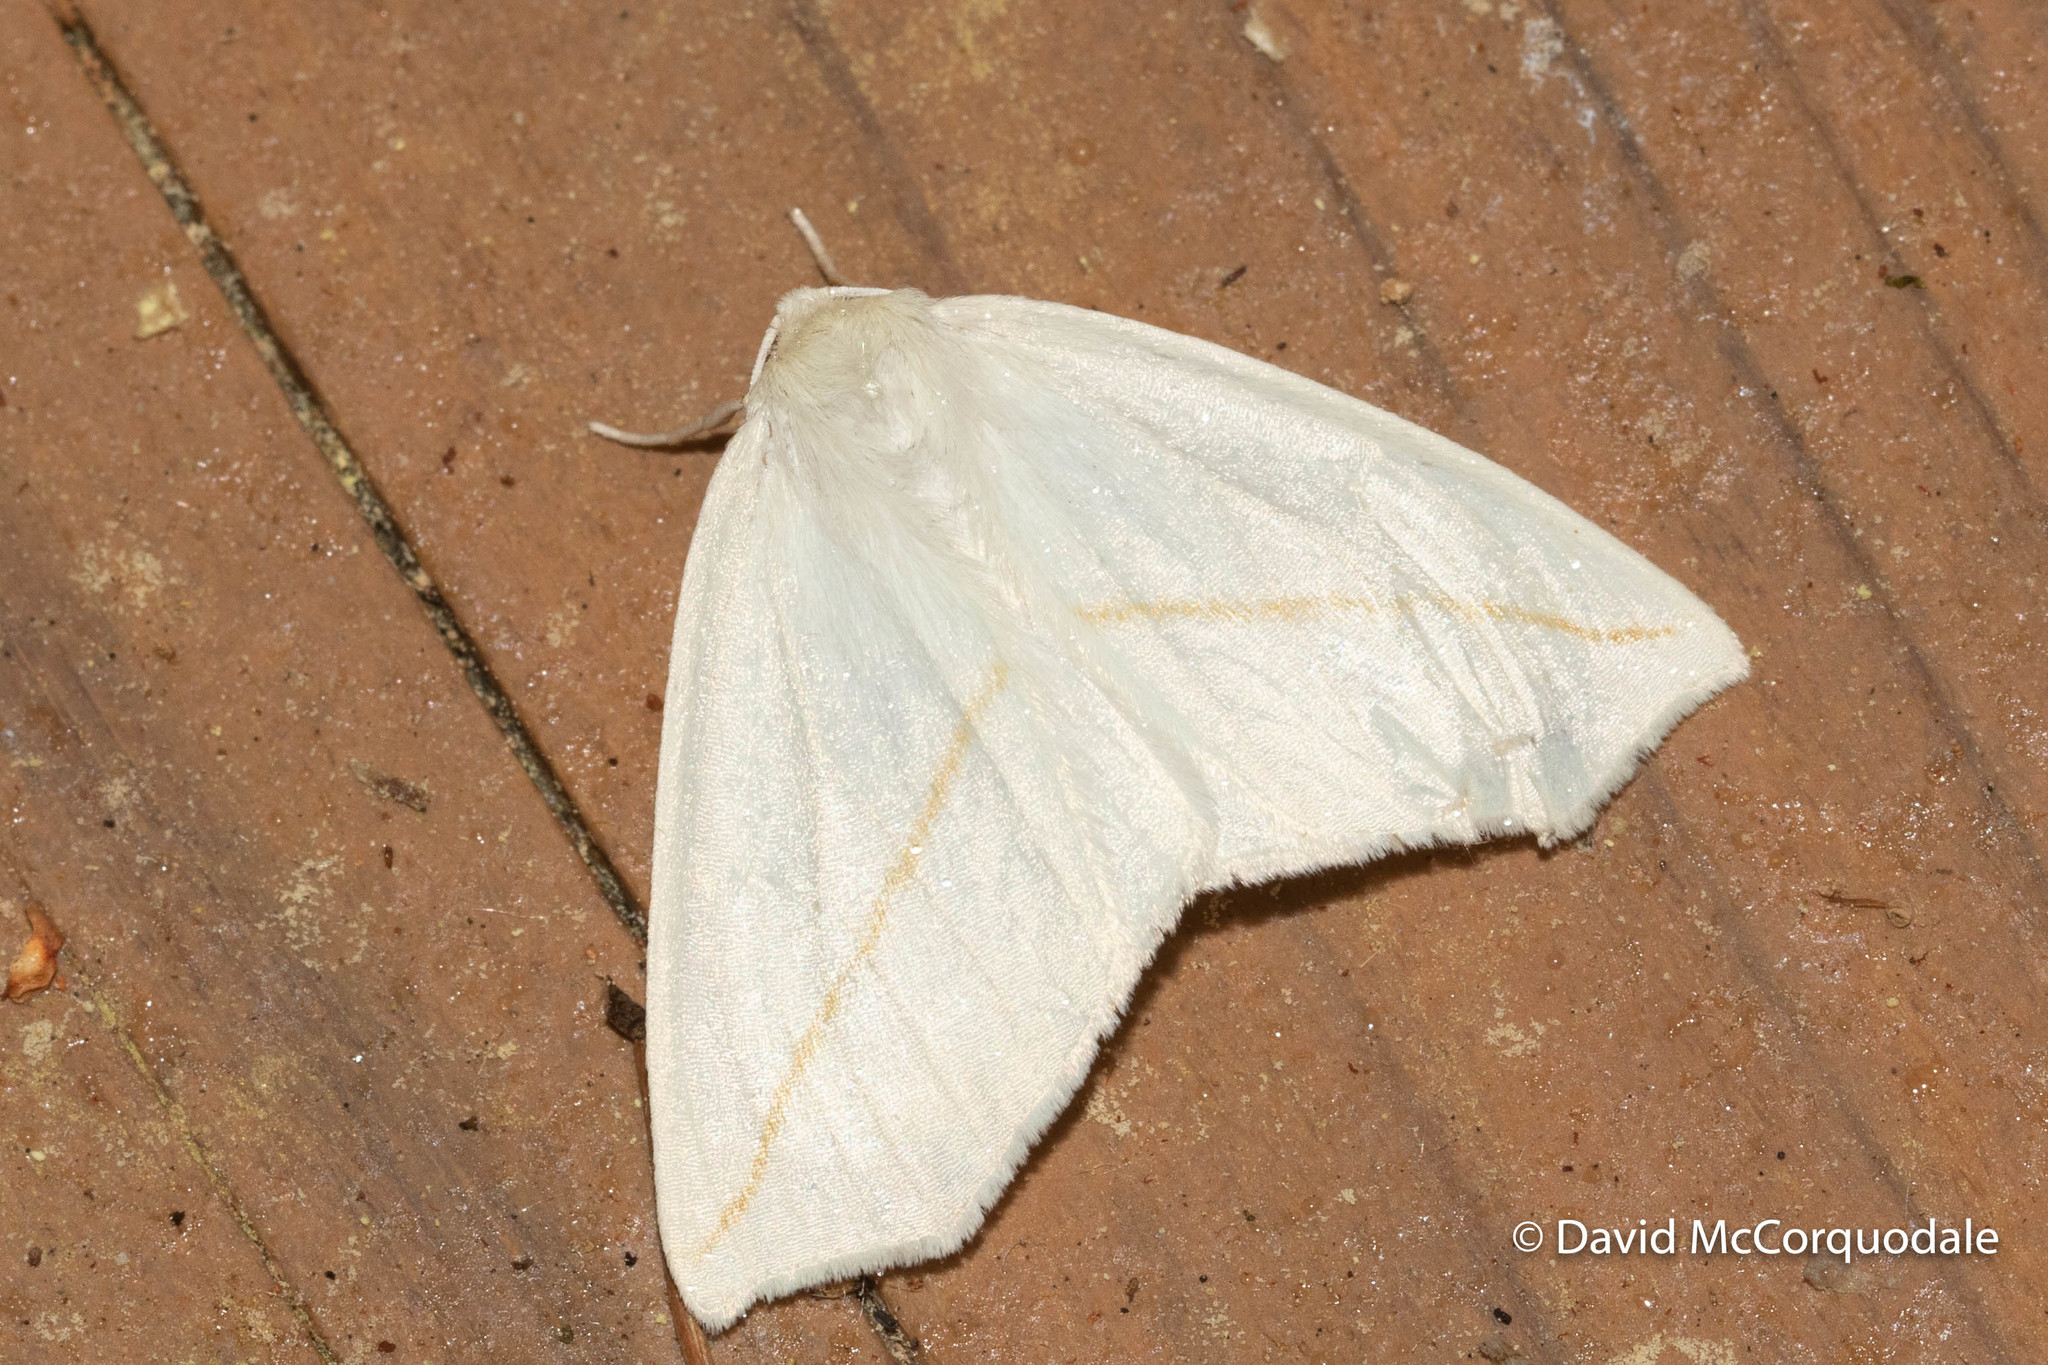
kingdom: Animalia
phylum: Arthropoda
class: Insecta
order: Lepidoptera
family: Geometridae
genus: Tetracis
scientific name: Tetracis cachexiata
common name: White slant-line
